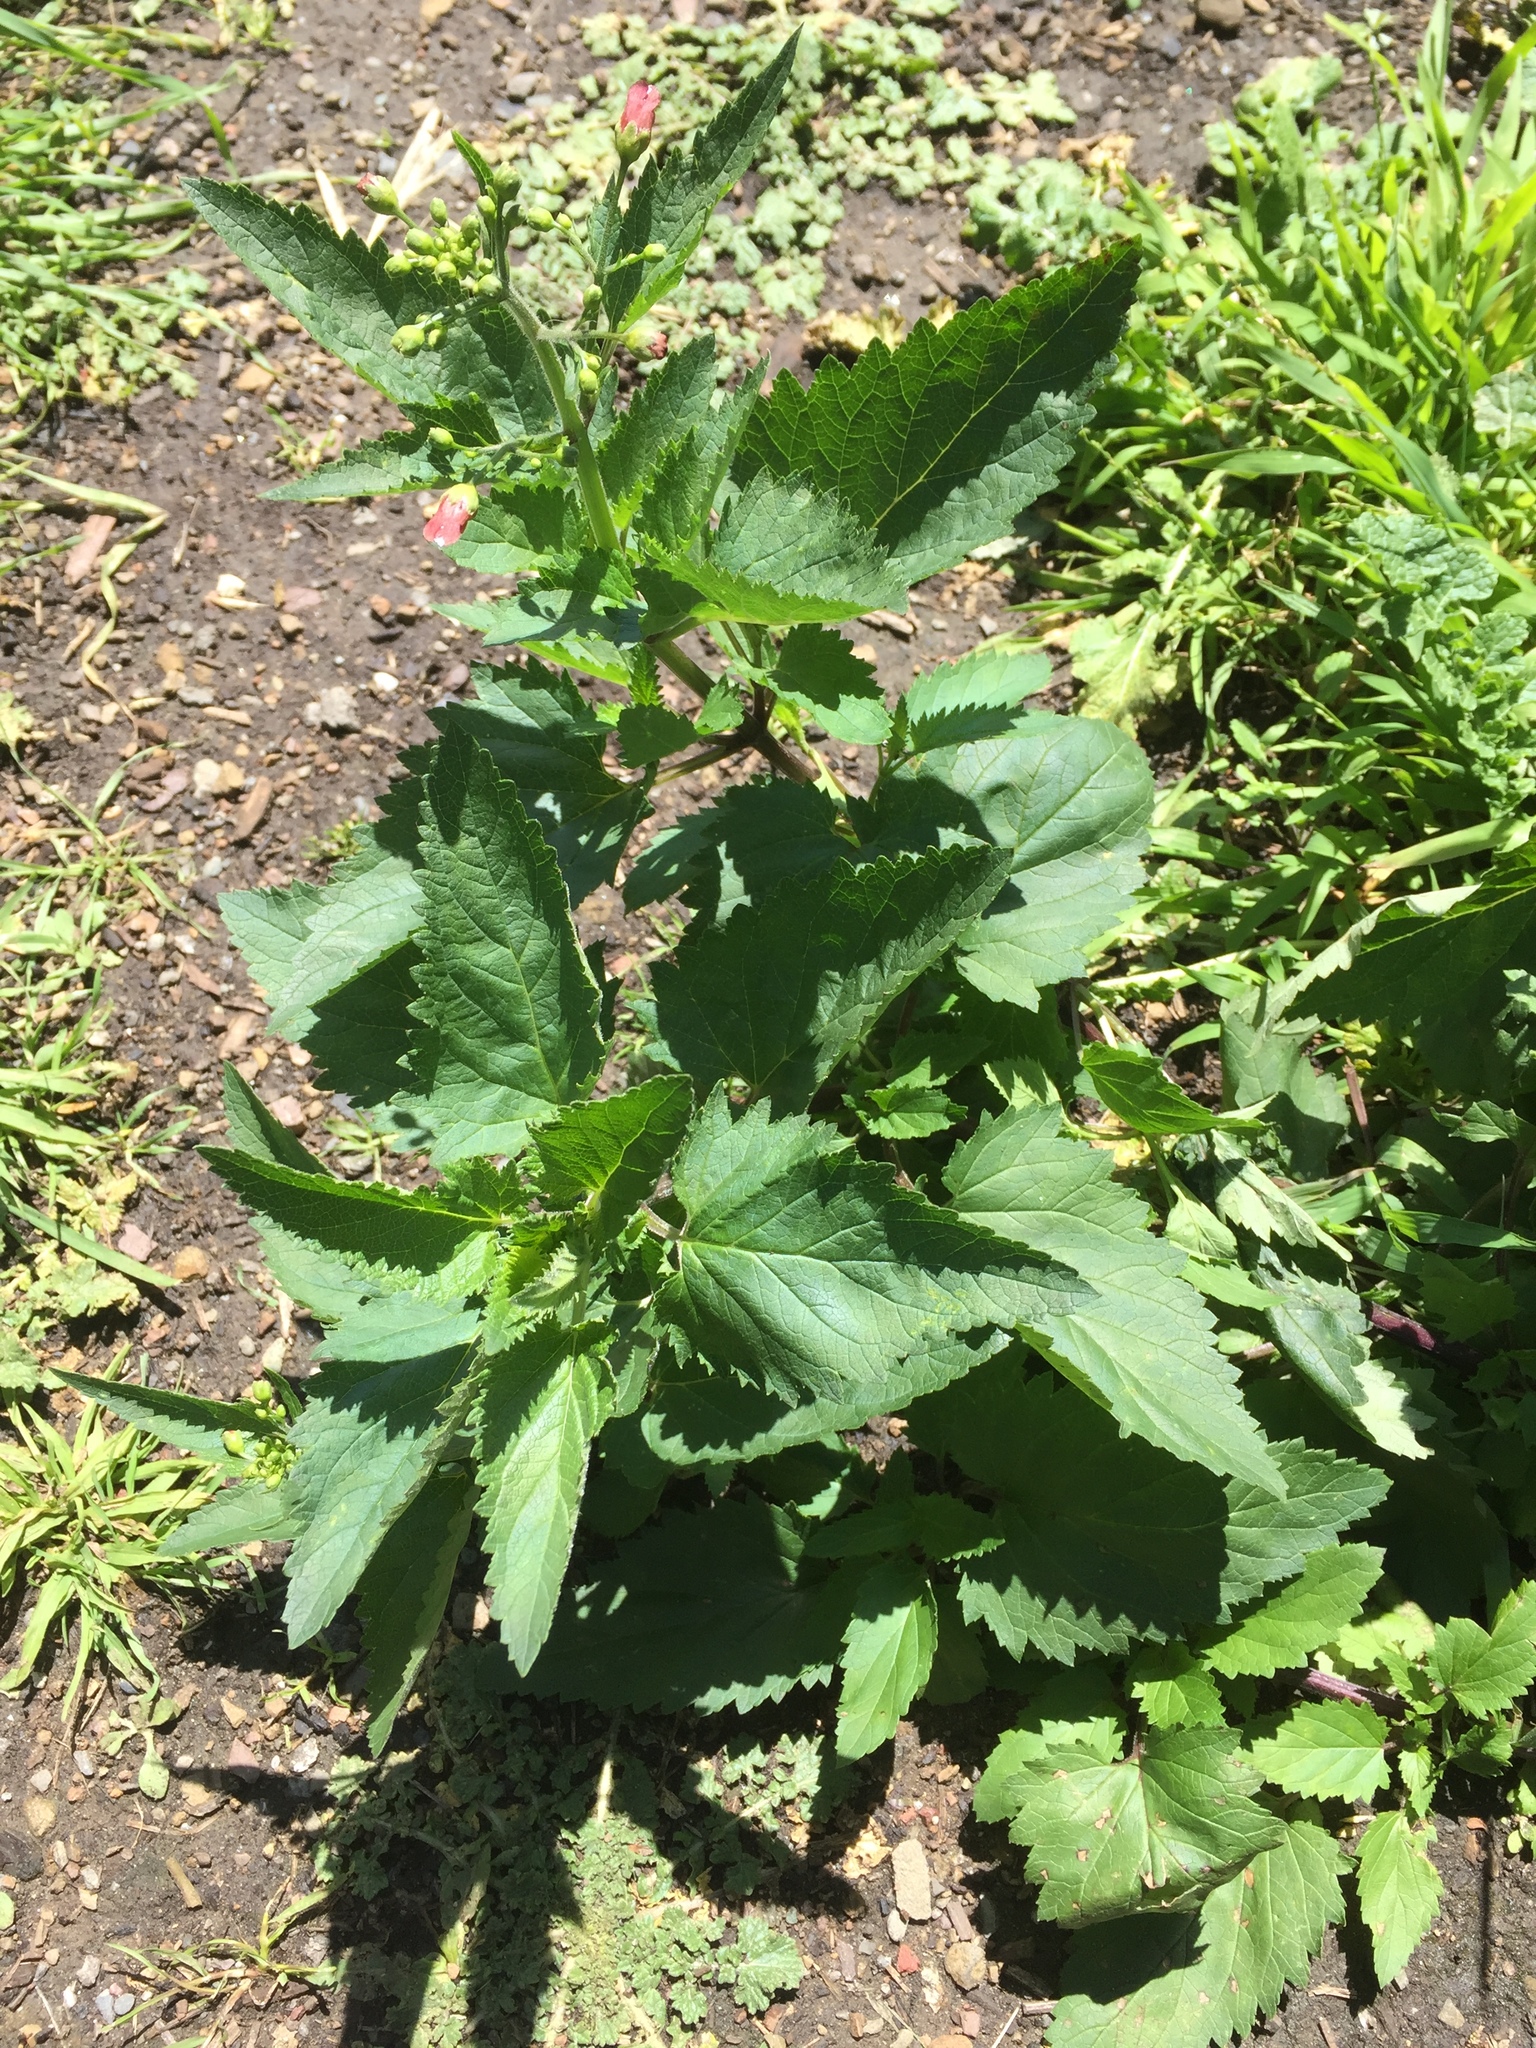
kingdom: Plantae
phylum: Tracheophyta
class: Magnoliopsida
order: Lamiales
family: Scrophulariaceae
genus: Scrophularia
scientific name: Scrophularia californica
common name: California figwort
